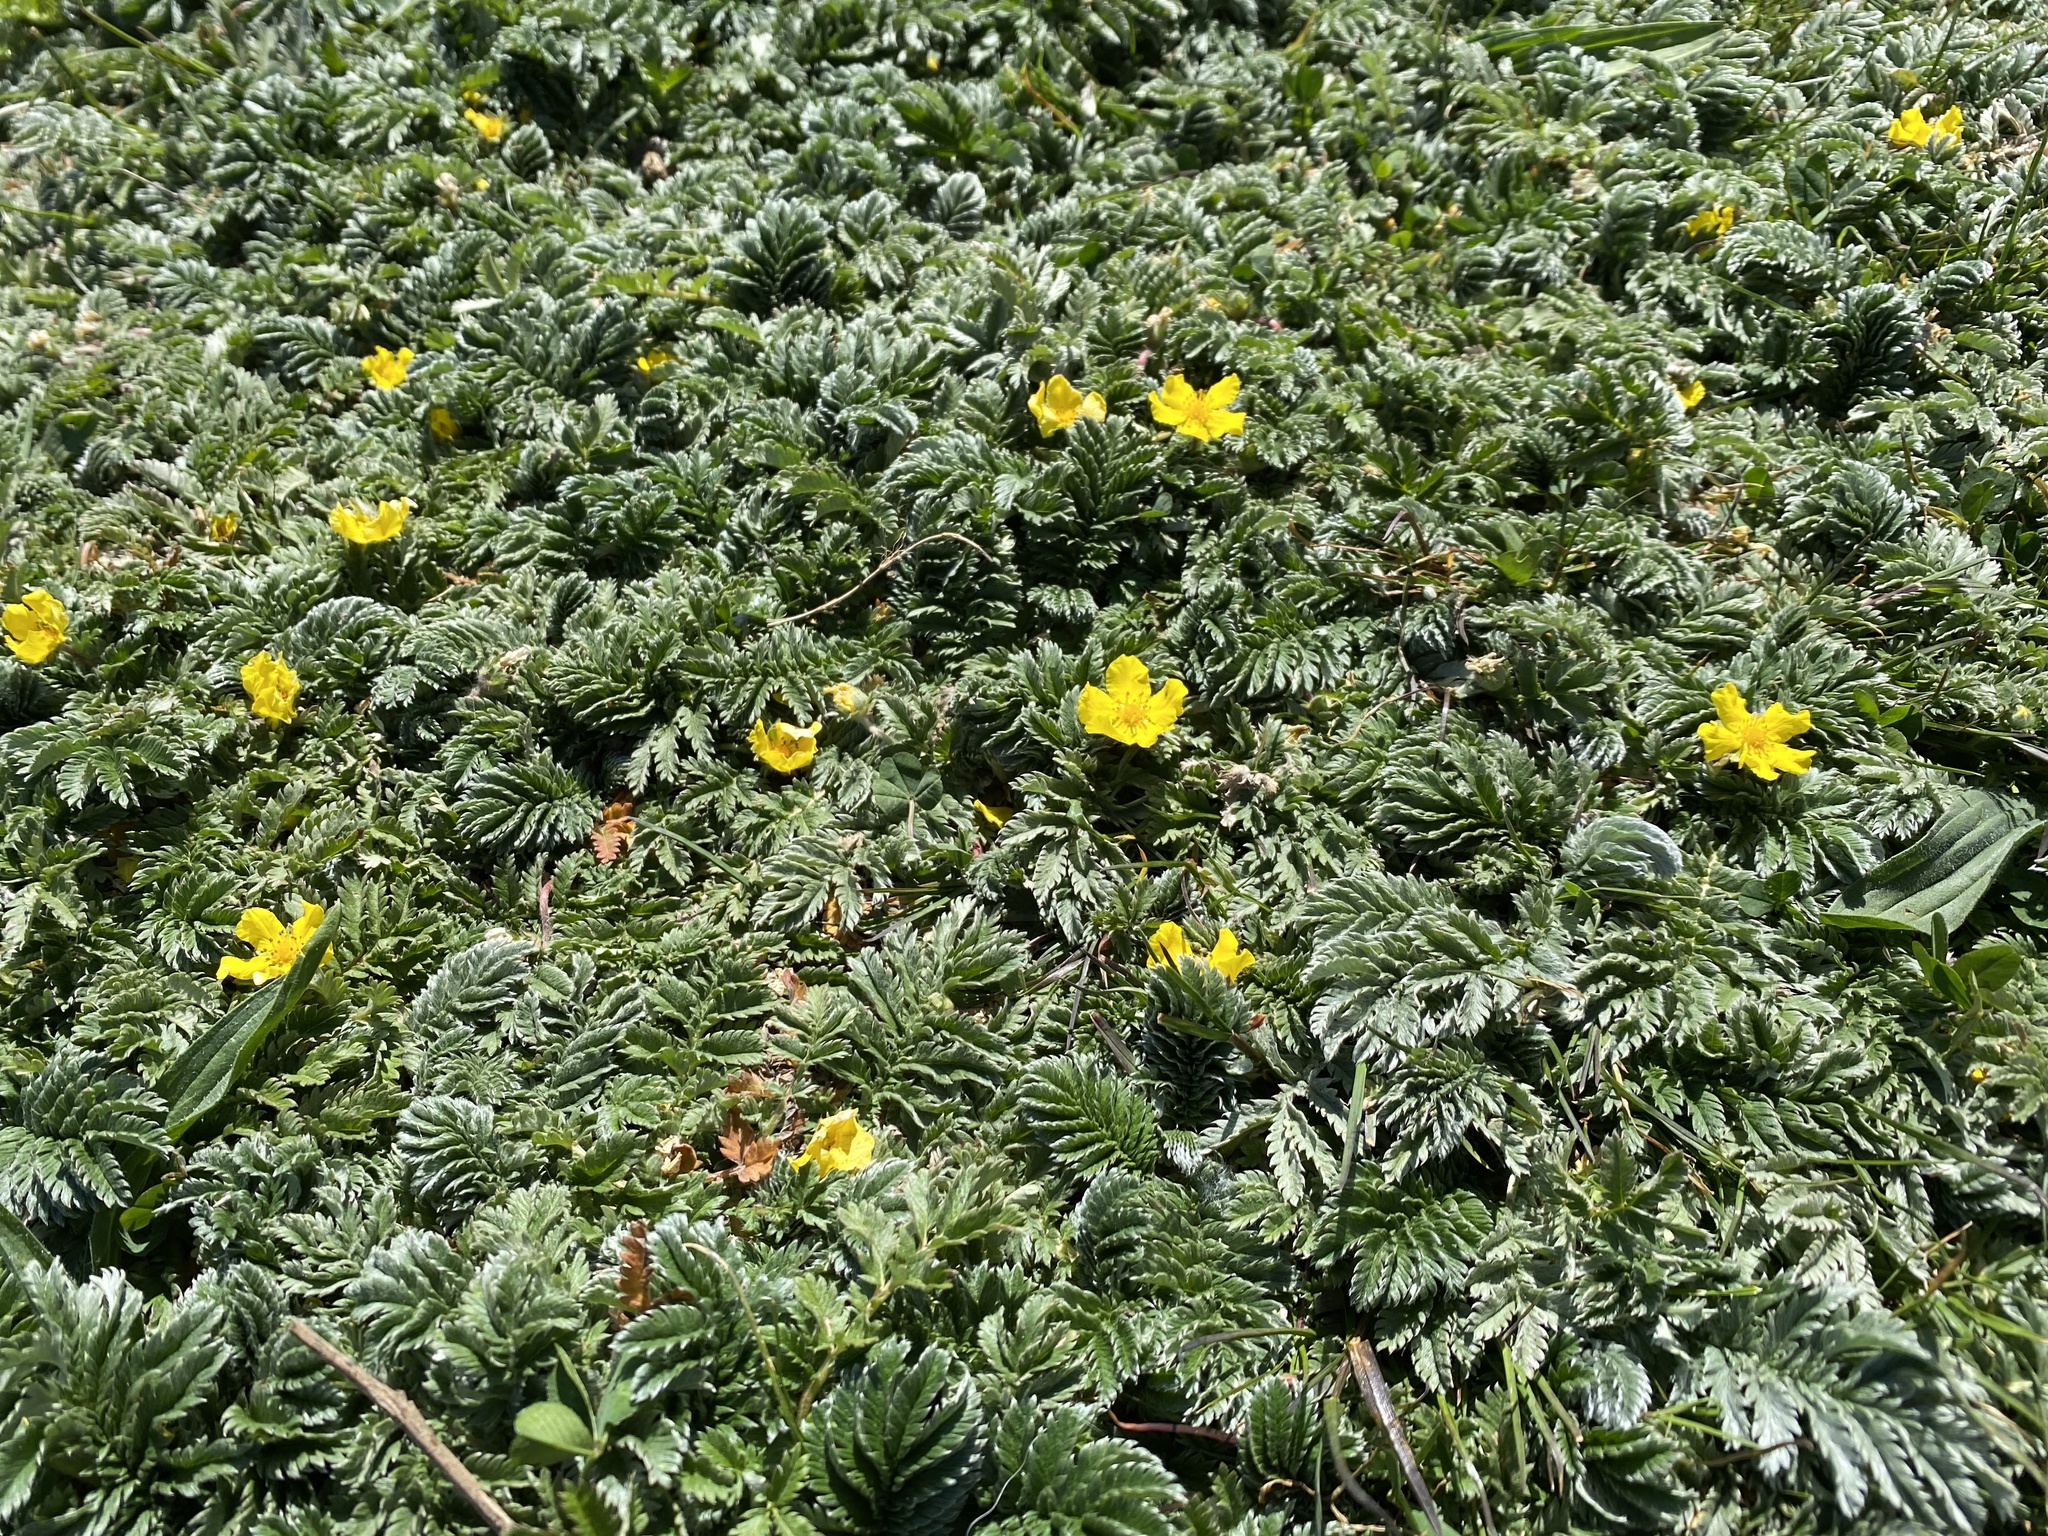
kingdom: Plantae
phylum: Tracheophyta
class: Magnoliopsida
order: Rosales
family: Rosaceae
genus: Argentina
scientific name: Argentina anserina
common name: Common silverweed
